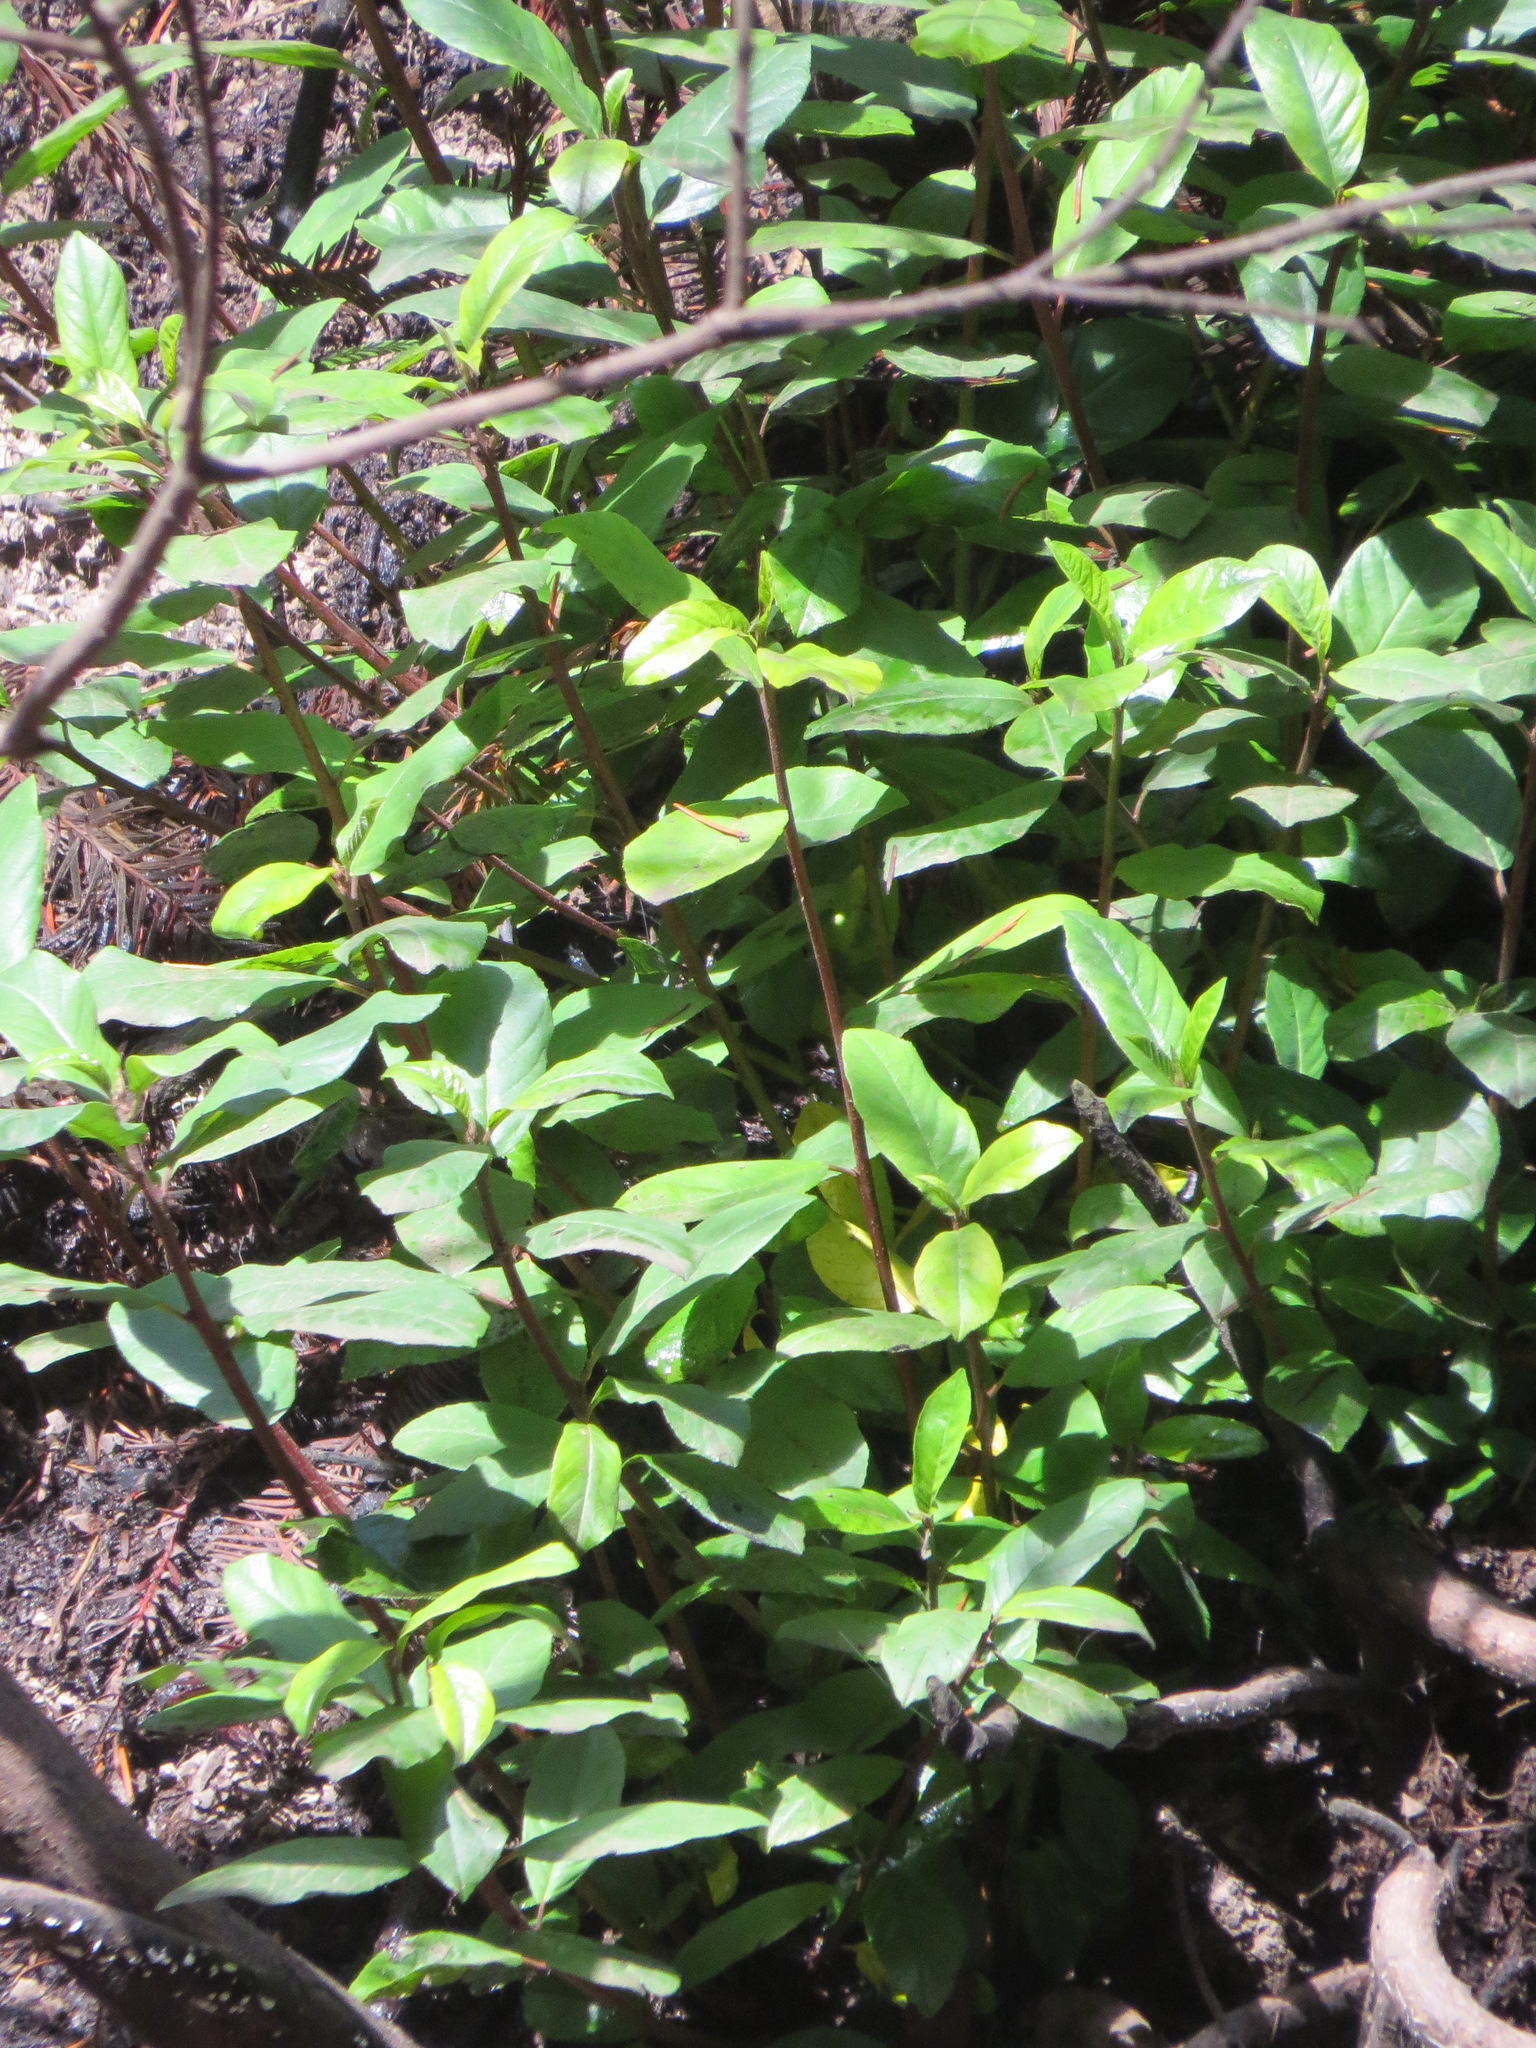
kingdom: Plantae
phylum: Tracheophyta
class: Magnoliopsida
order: Rosales
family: Rhamnaceae
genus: Frangula
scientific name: Frangula californica
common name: California buckthorn
